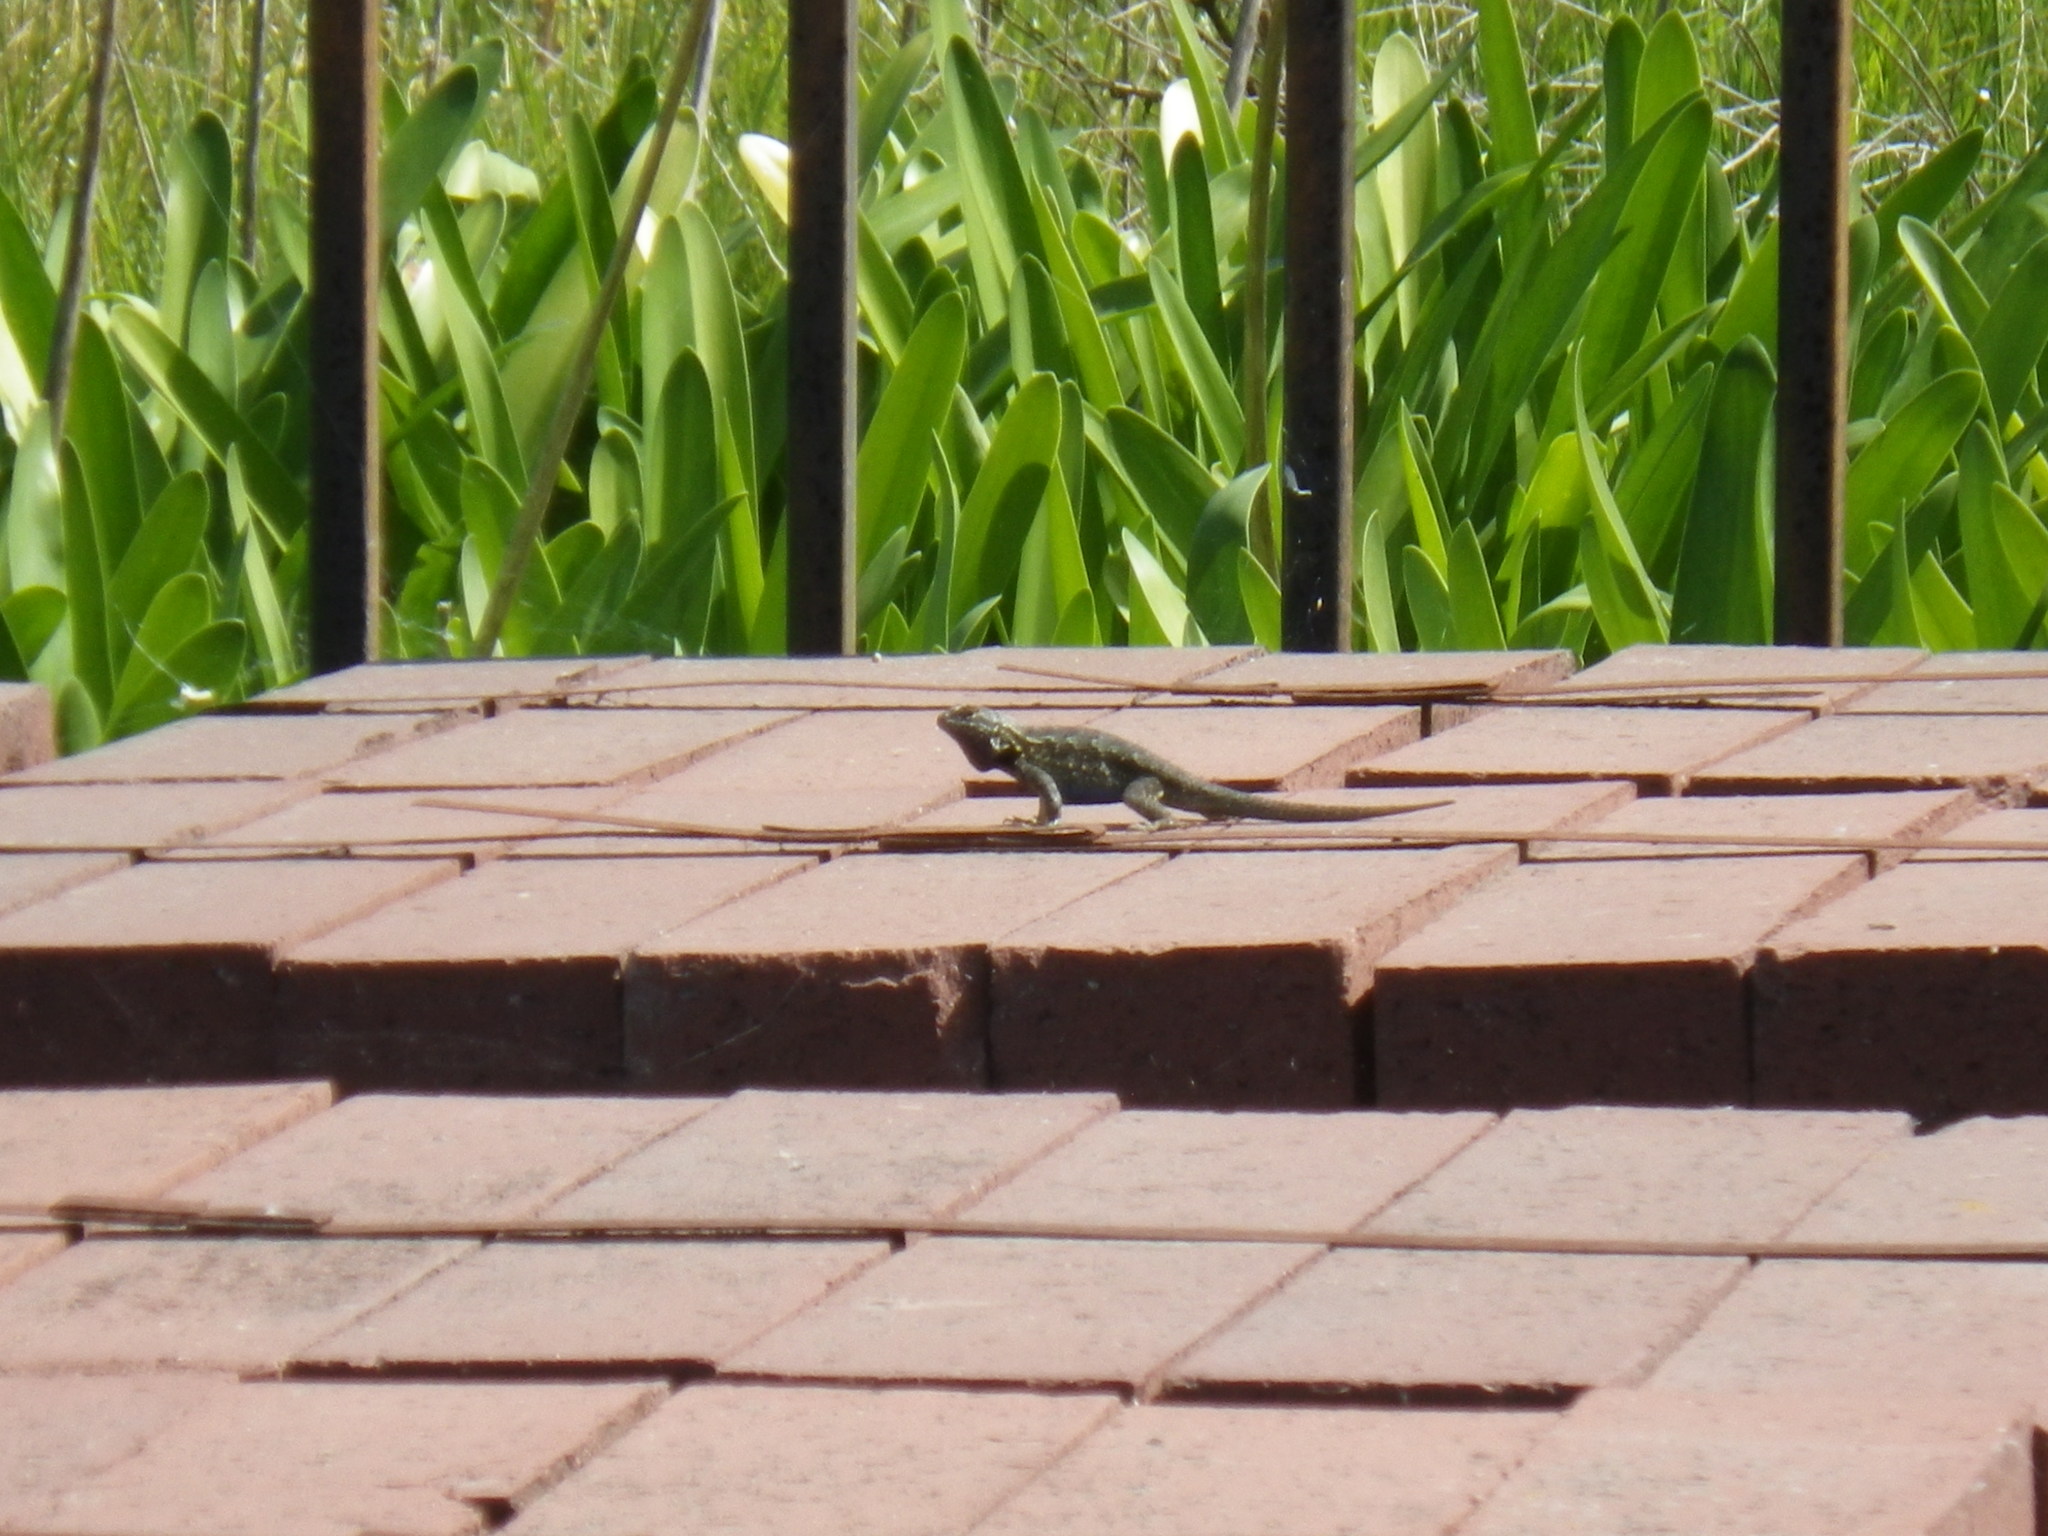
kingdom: Animalia
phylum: Chordata
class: Squamata
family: Phrynosomatidae
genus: Sceloporus
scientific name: Sceloporus occidentalis
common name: Western fence lizard
